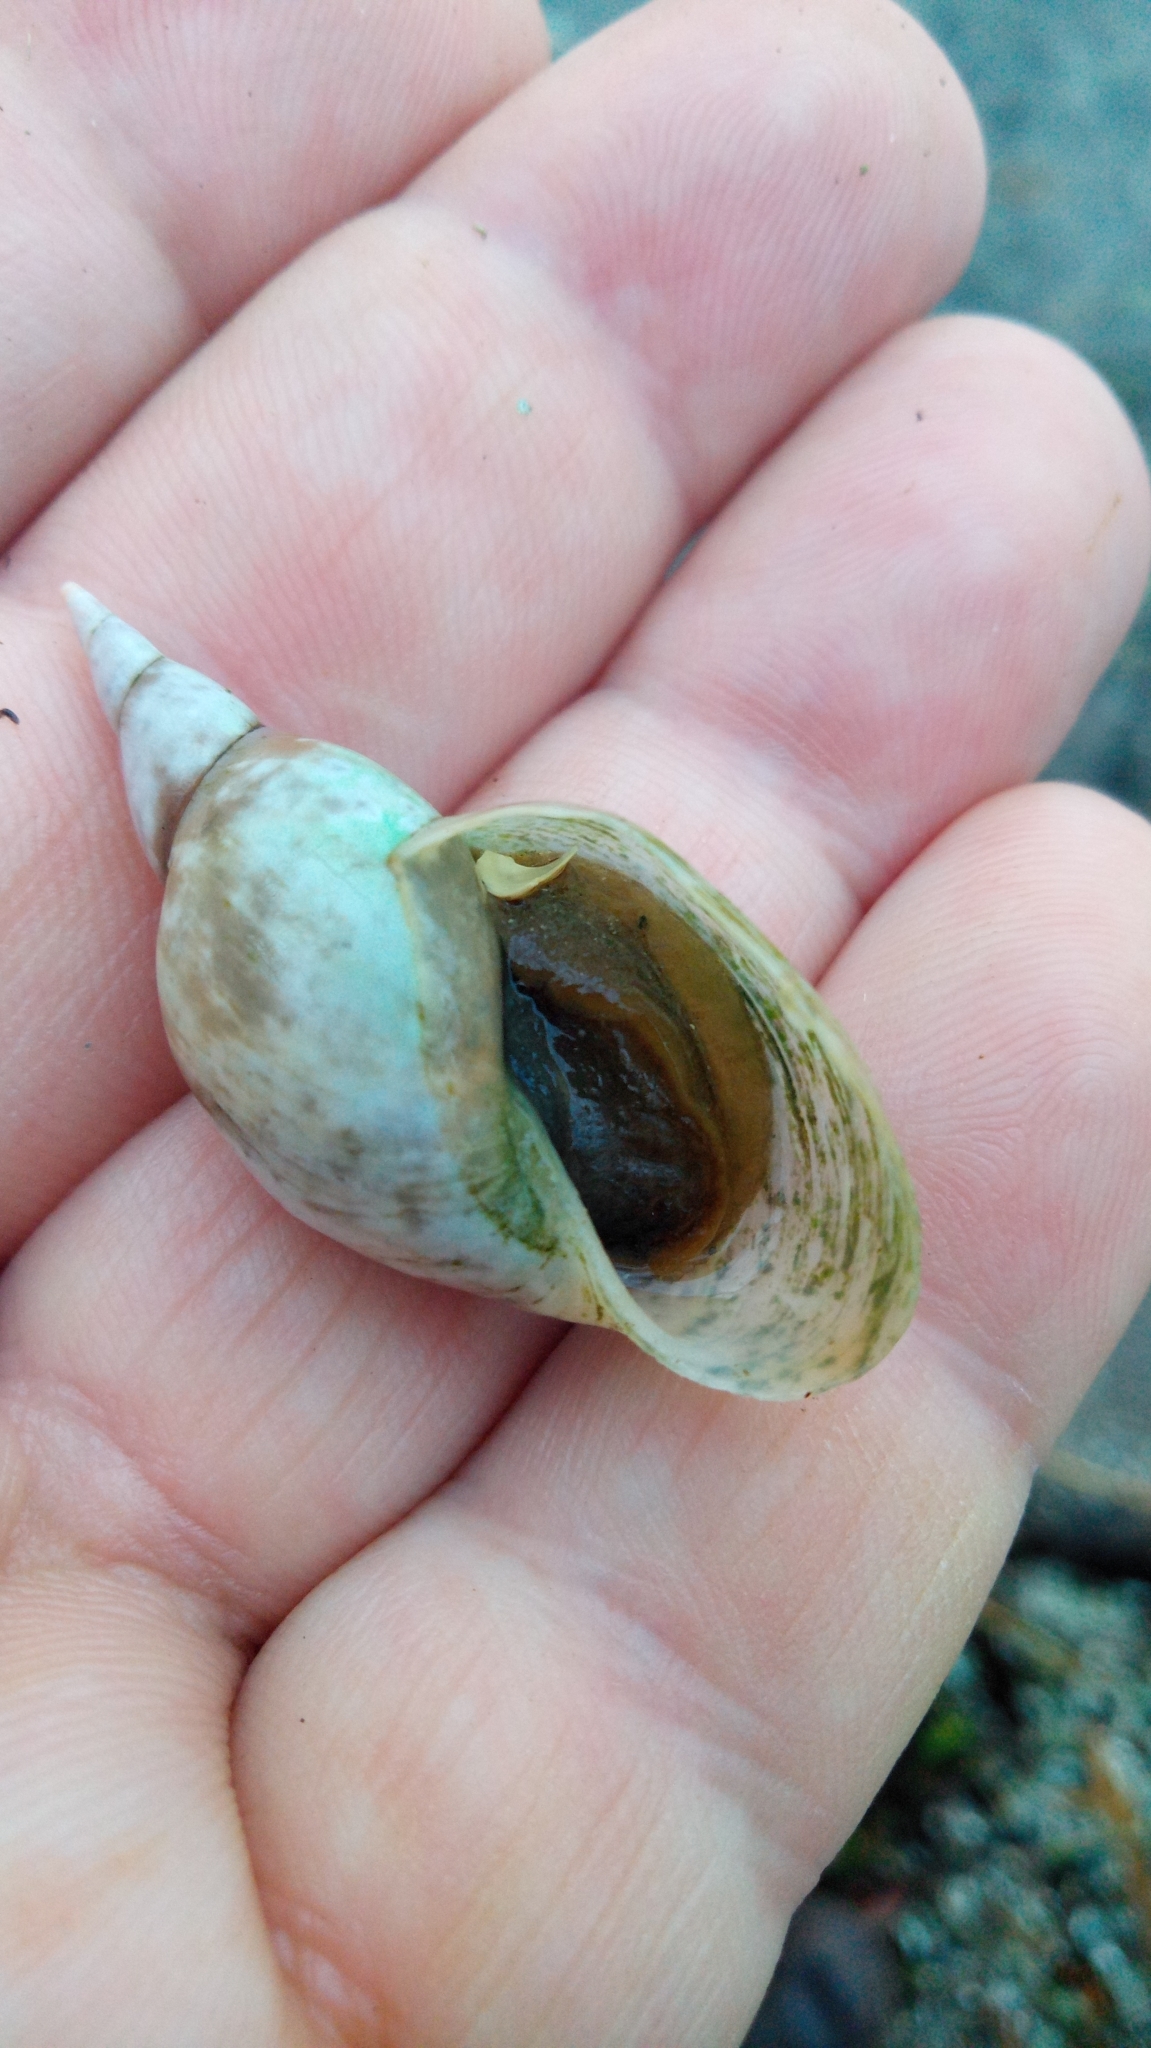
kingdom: Animalia
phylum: Mollusca
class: Gastropoda
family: Lymnaeidae
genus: Lymnaea
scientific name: Lymnaea stagnalis
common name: Great pond snail
